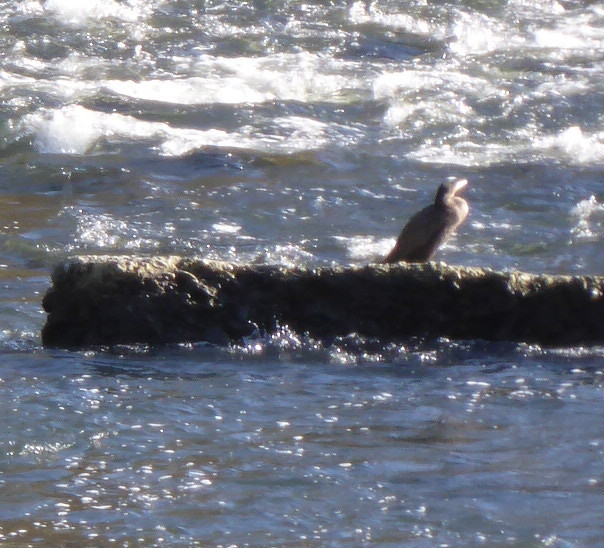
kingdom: Animalia
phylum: Chordata
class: Aves
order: Suliformes
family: Phalacrocoracidae
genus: Phalacrocorax
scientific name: Phalacrocorax carbo
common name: Great cormorant
